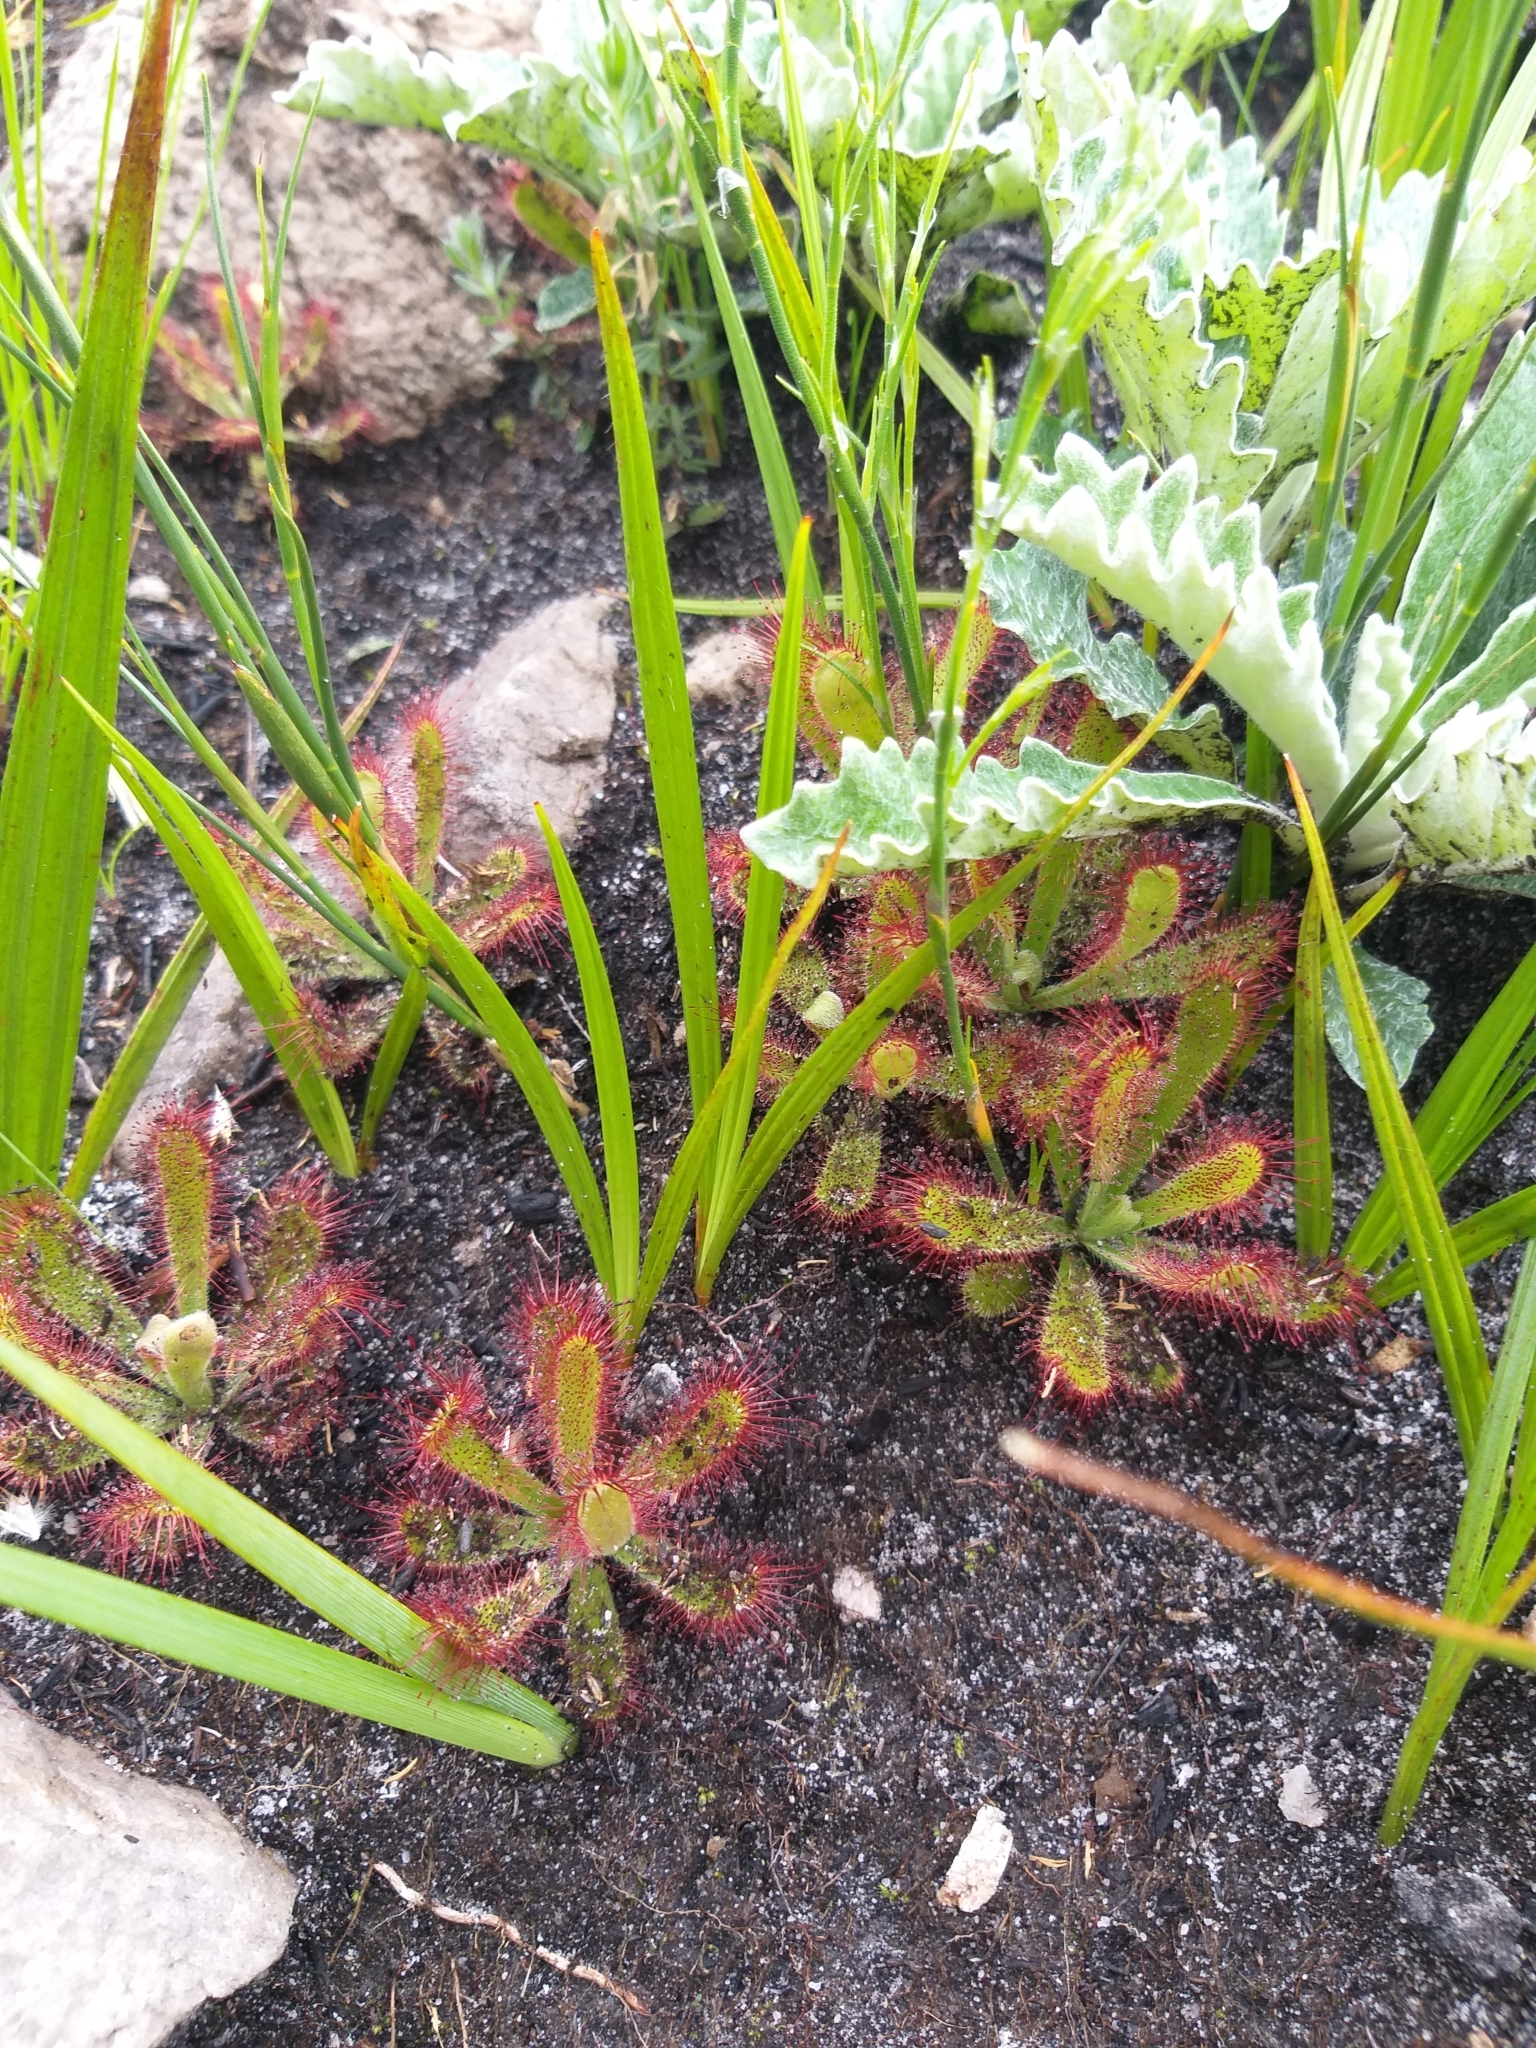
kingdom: Plantae
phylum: Tracheophyta
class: Magnoliopsida
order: Caryophyllales
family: Droseraceae
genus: Drosera
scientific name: Drosera ericgreenii
